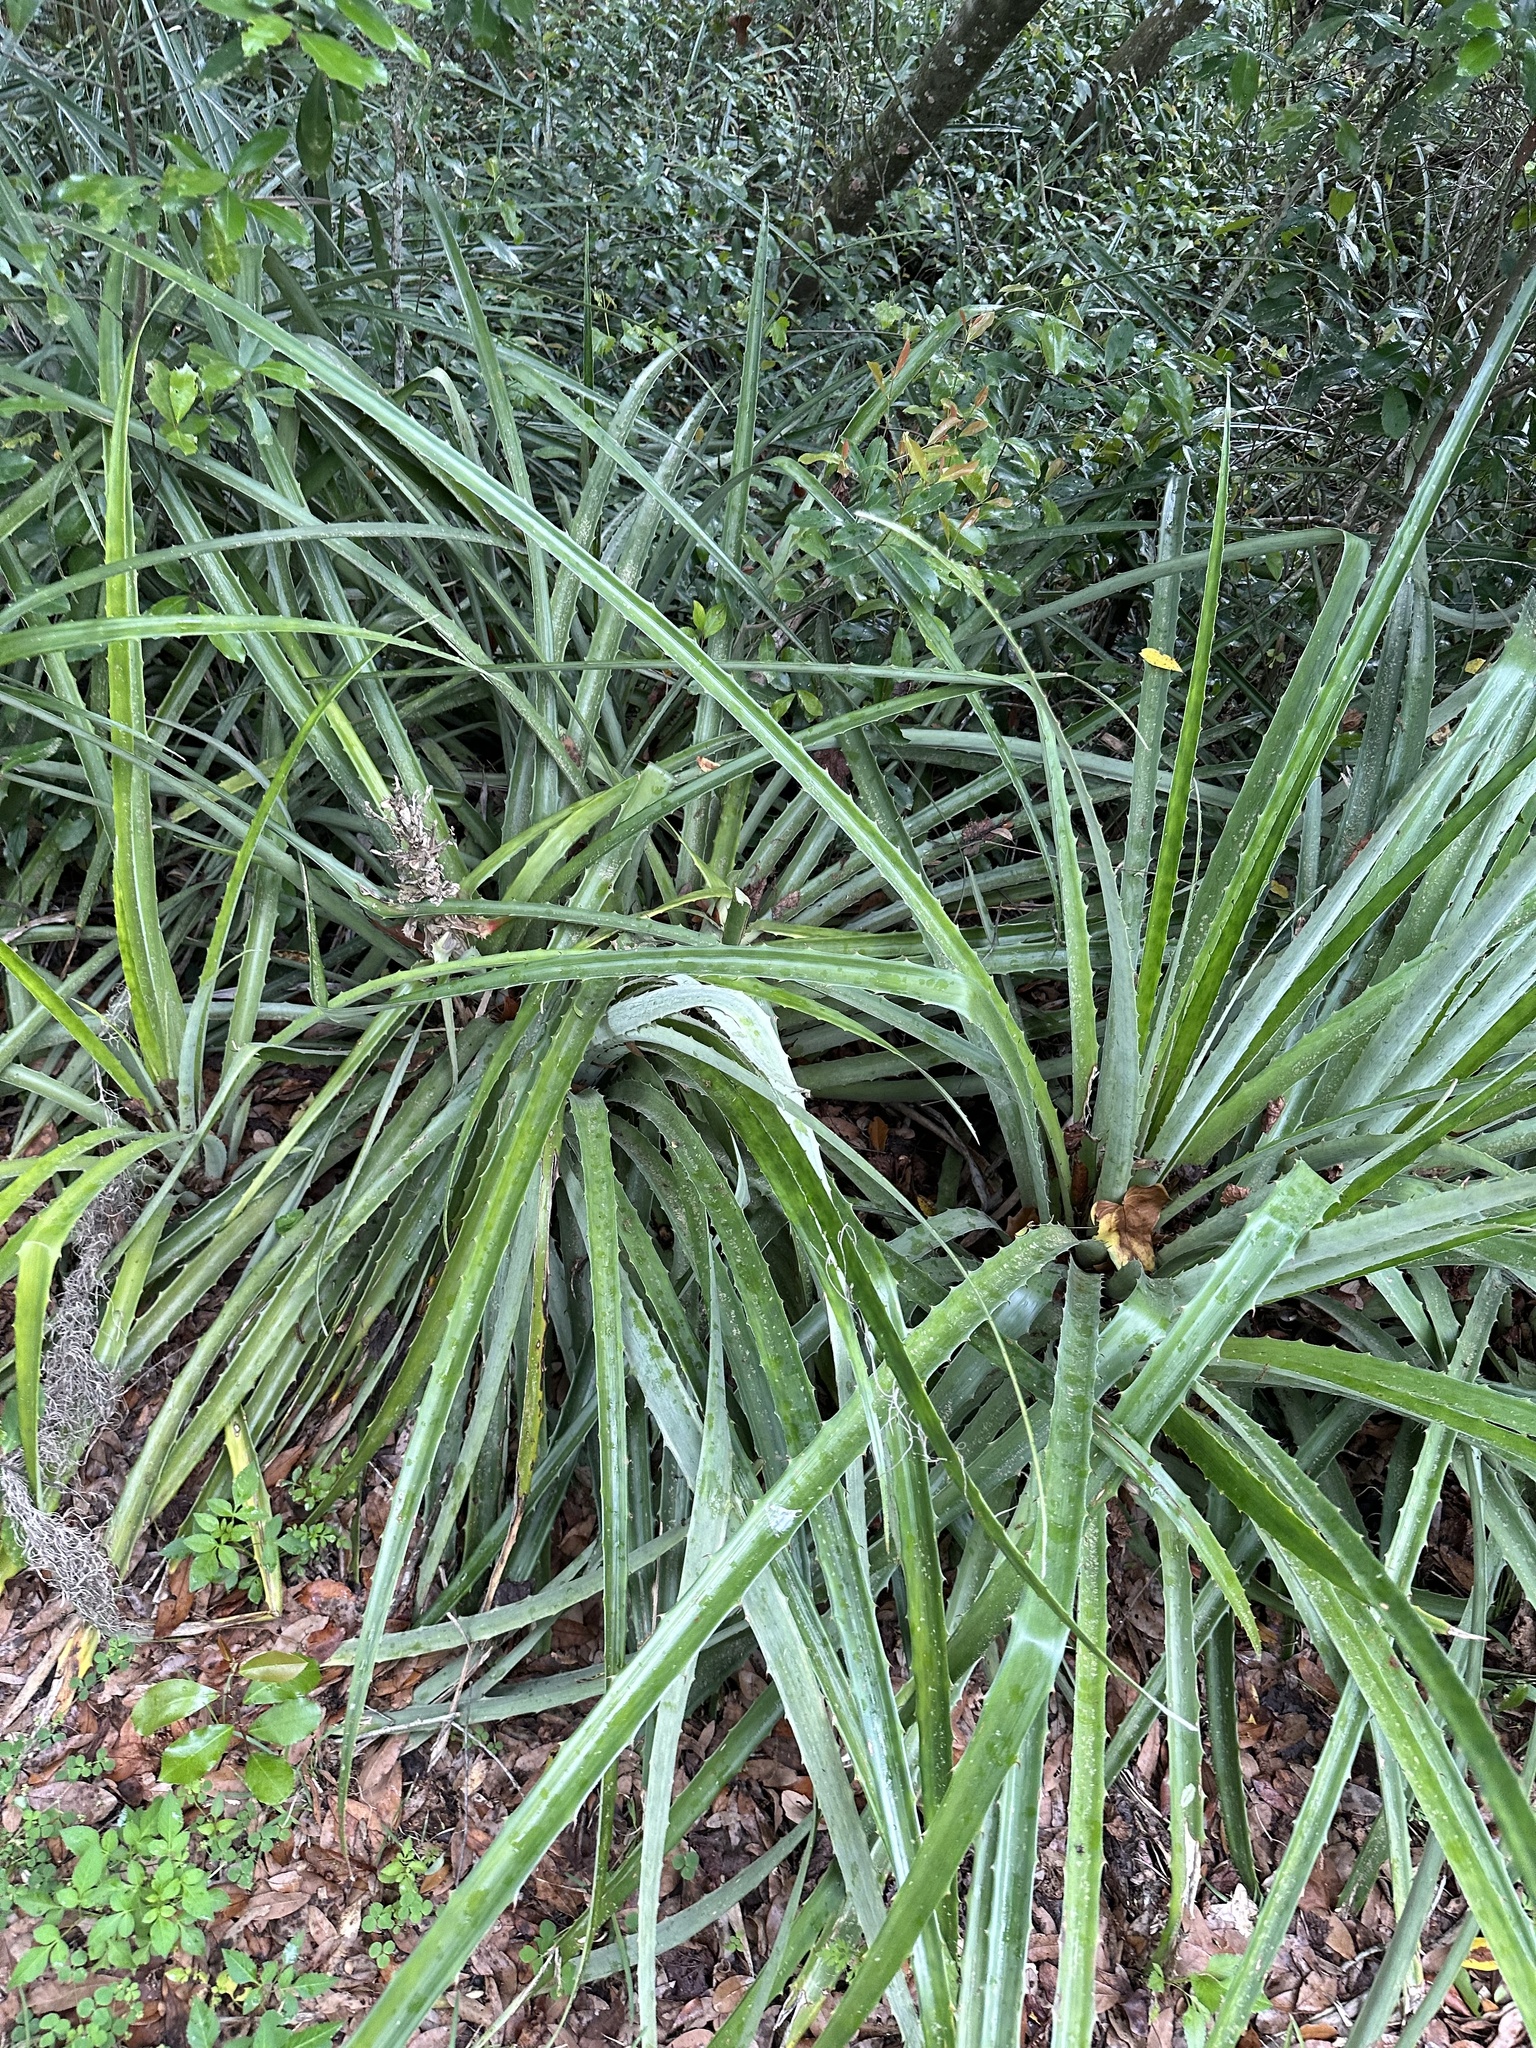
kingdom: Plantae
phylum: Tracheophyta
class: Liliopsida
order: Poales
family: Bromeliaceae
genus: Bromelia
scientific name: Bromelia pinguin
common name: Pinguin
